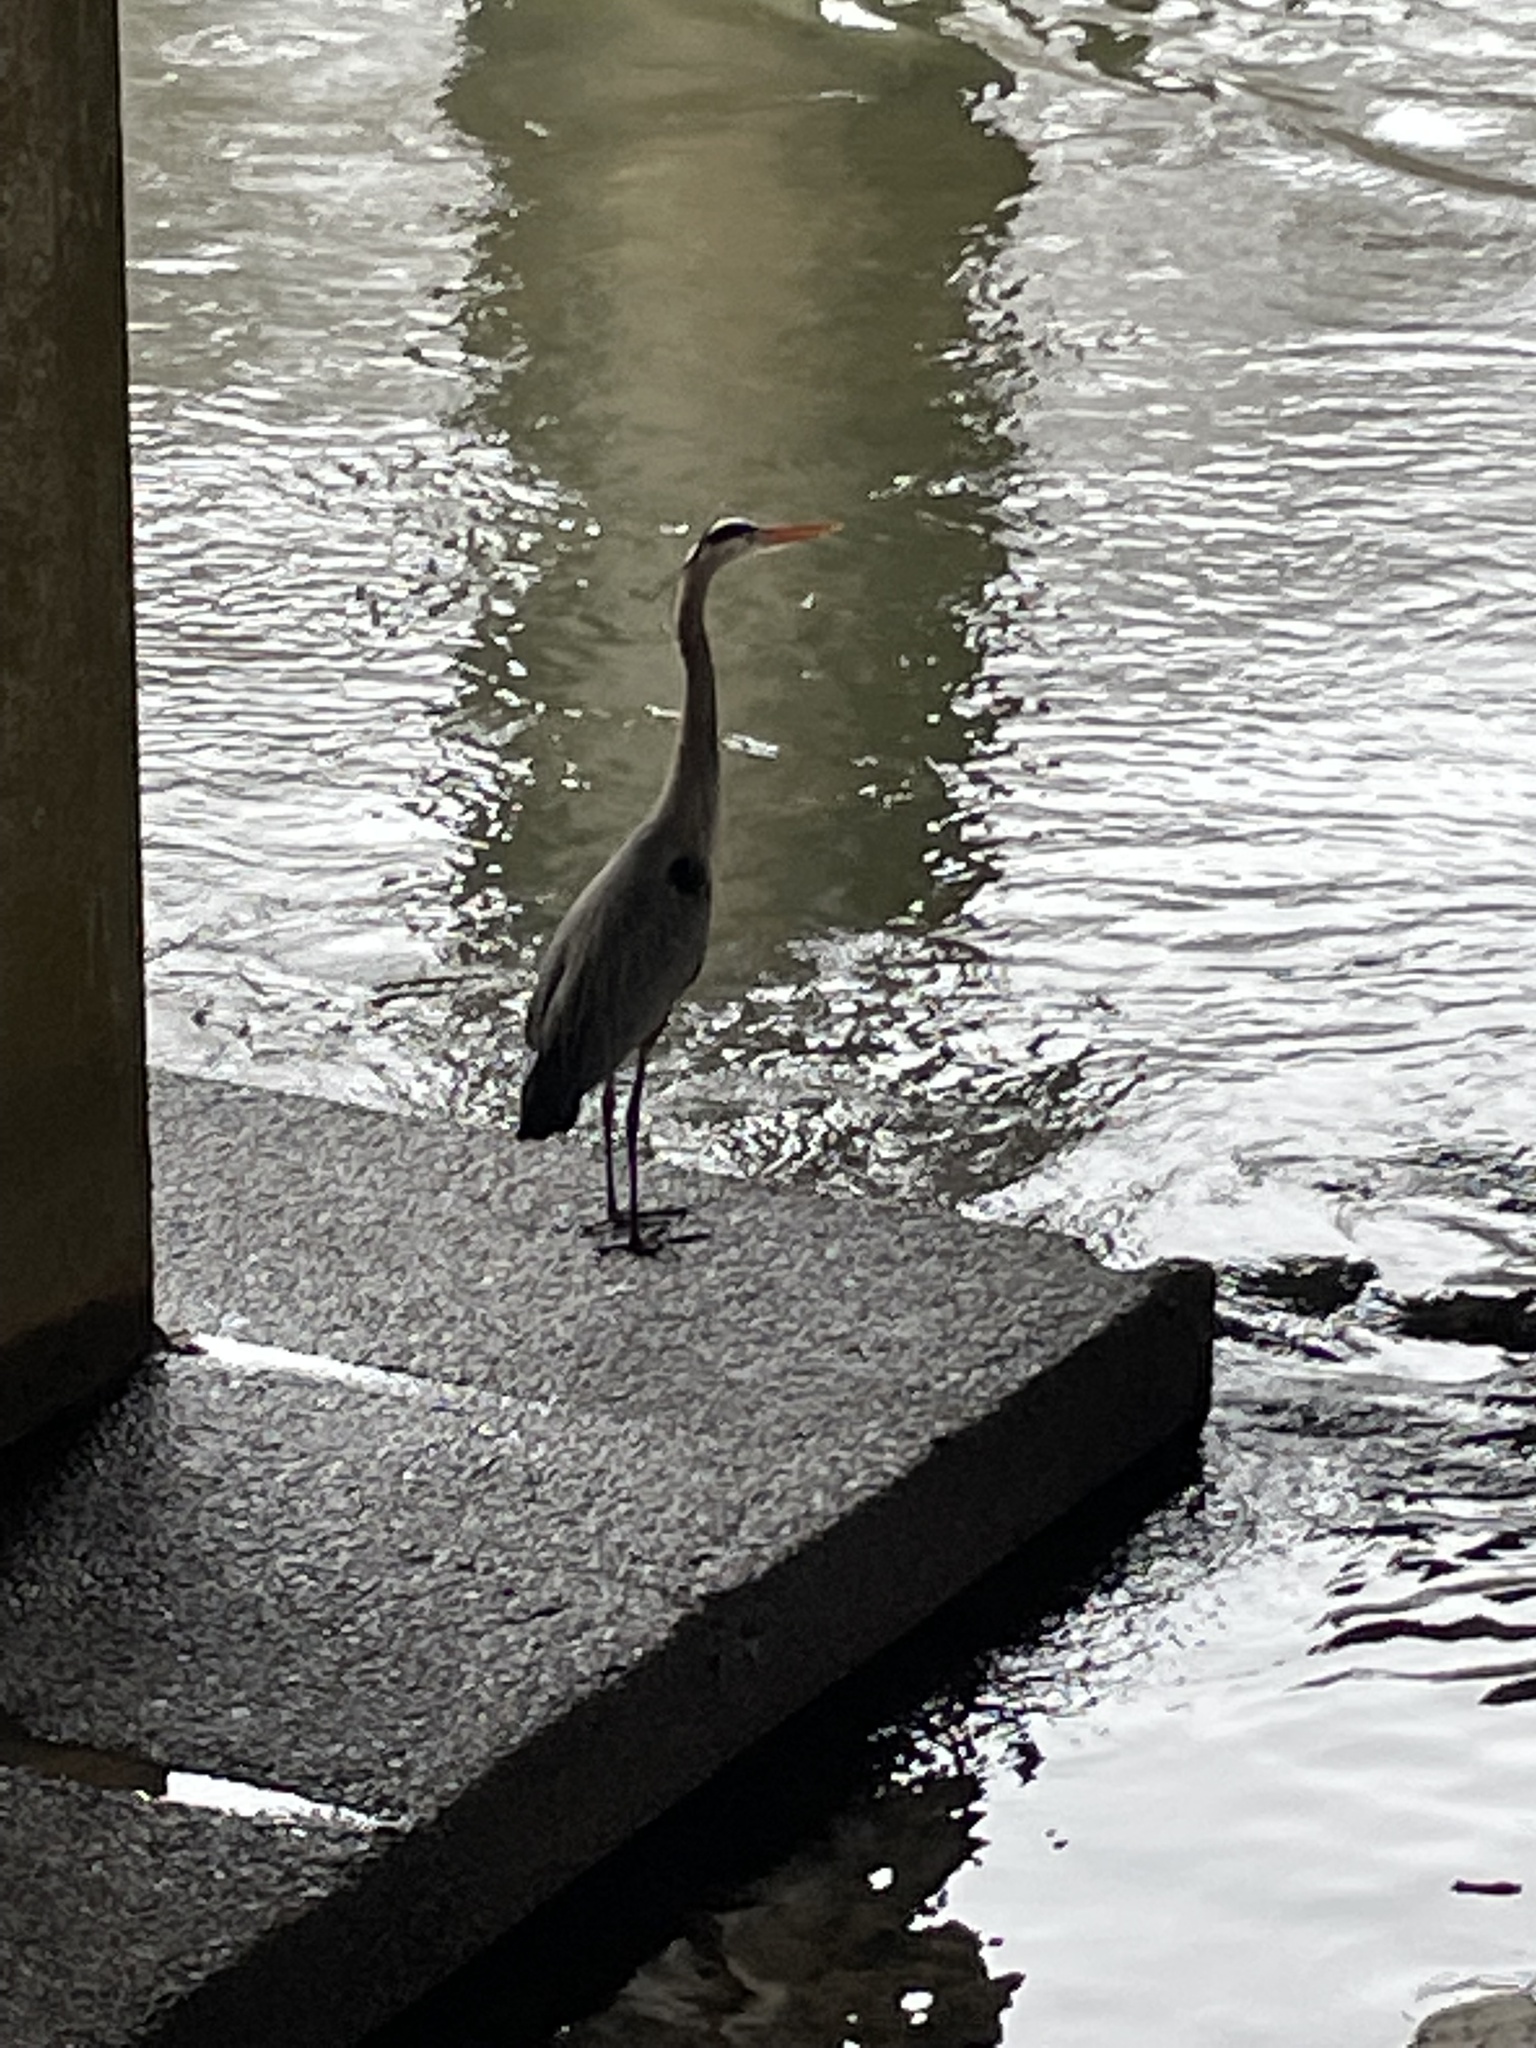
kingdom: Animalia
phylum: Chordata
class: Aves
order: Pelecaniformes
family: Ardeidae
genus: Ardea
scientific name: Ardea herodias
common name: Great blue heron
